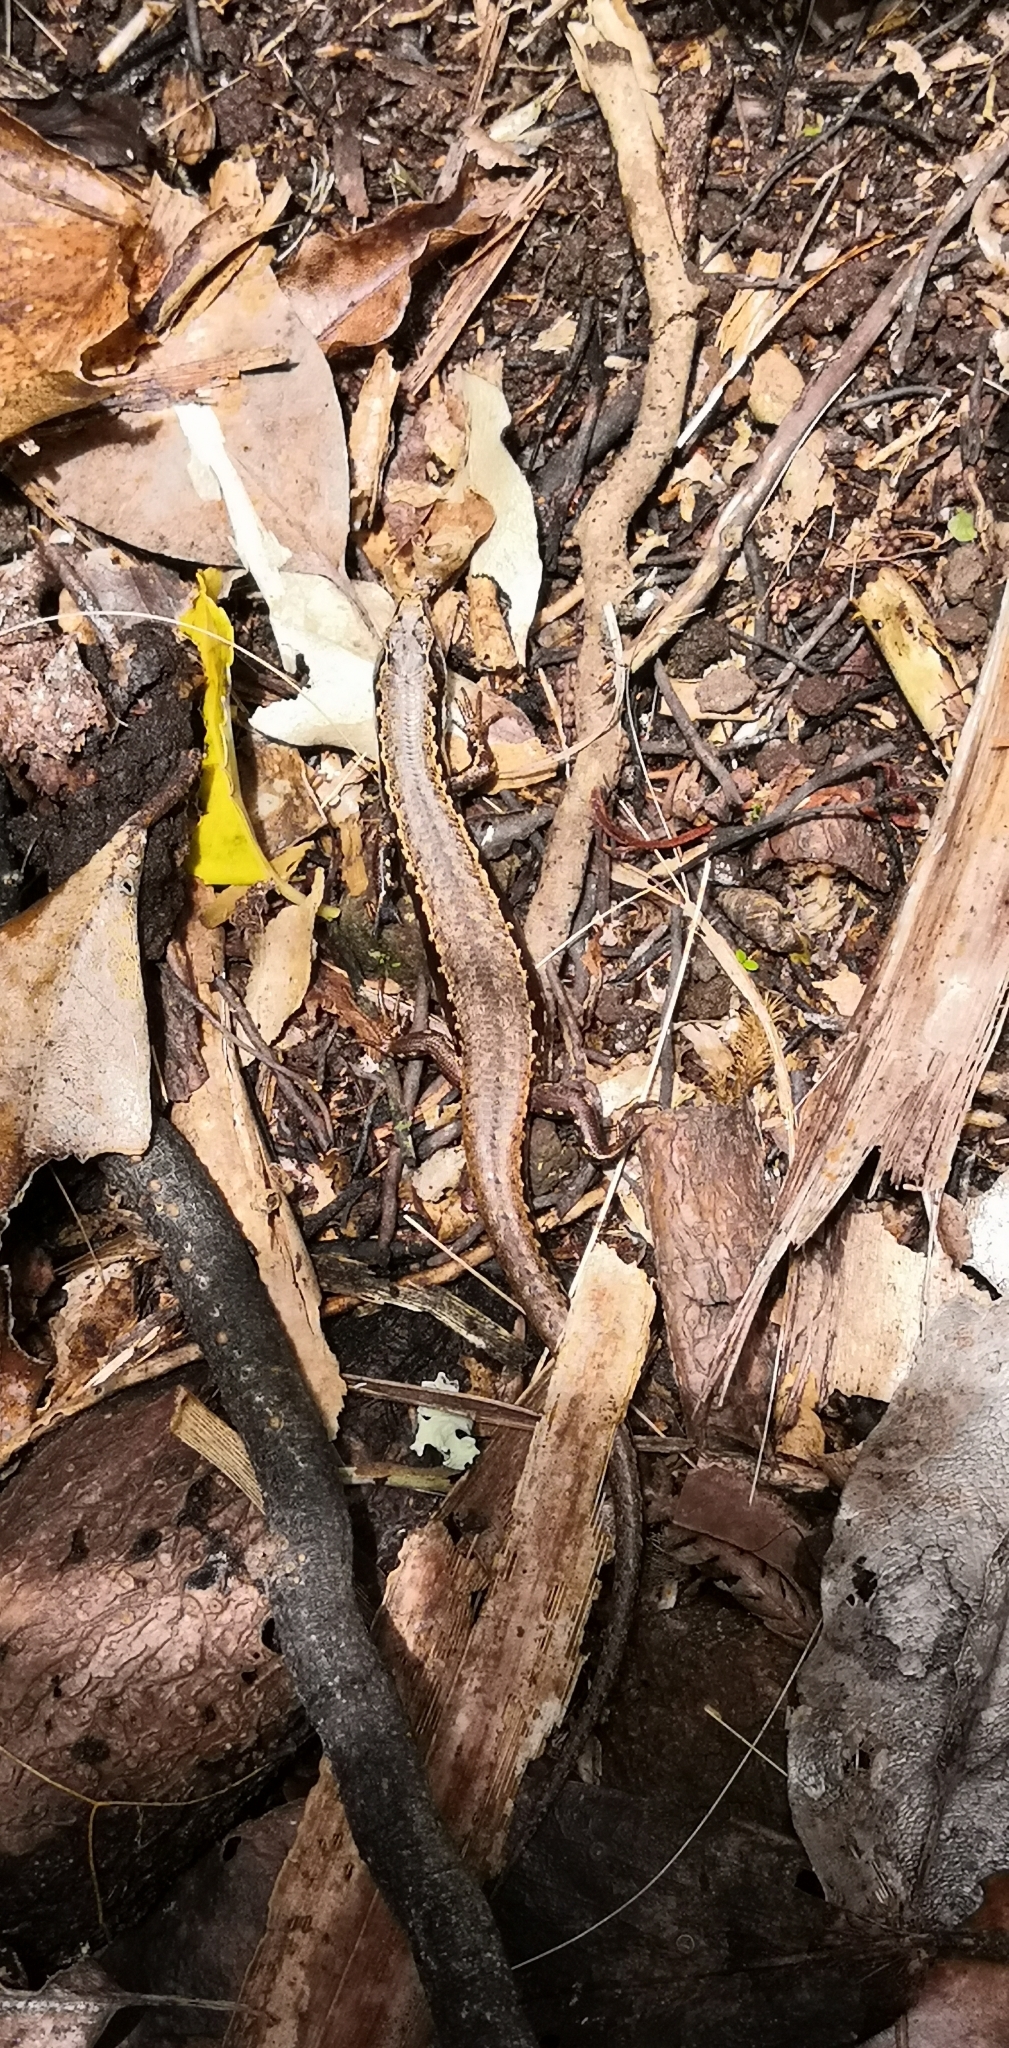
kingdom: Animalia
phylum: Chordata
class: Squamata
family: Scincidae
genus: Oligosoma
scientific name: Oligosoma kakerakau
